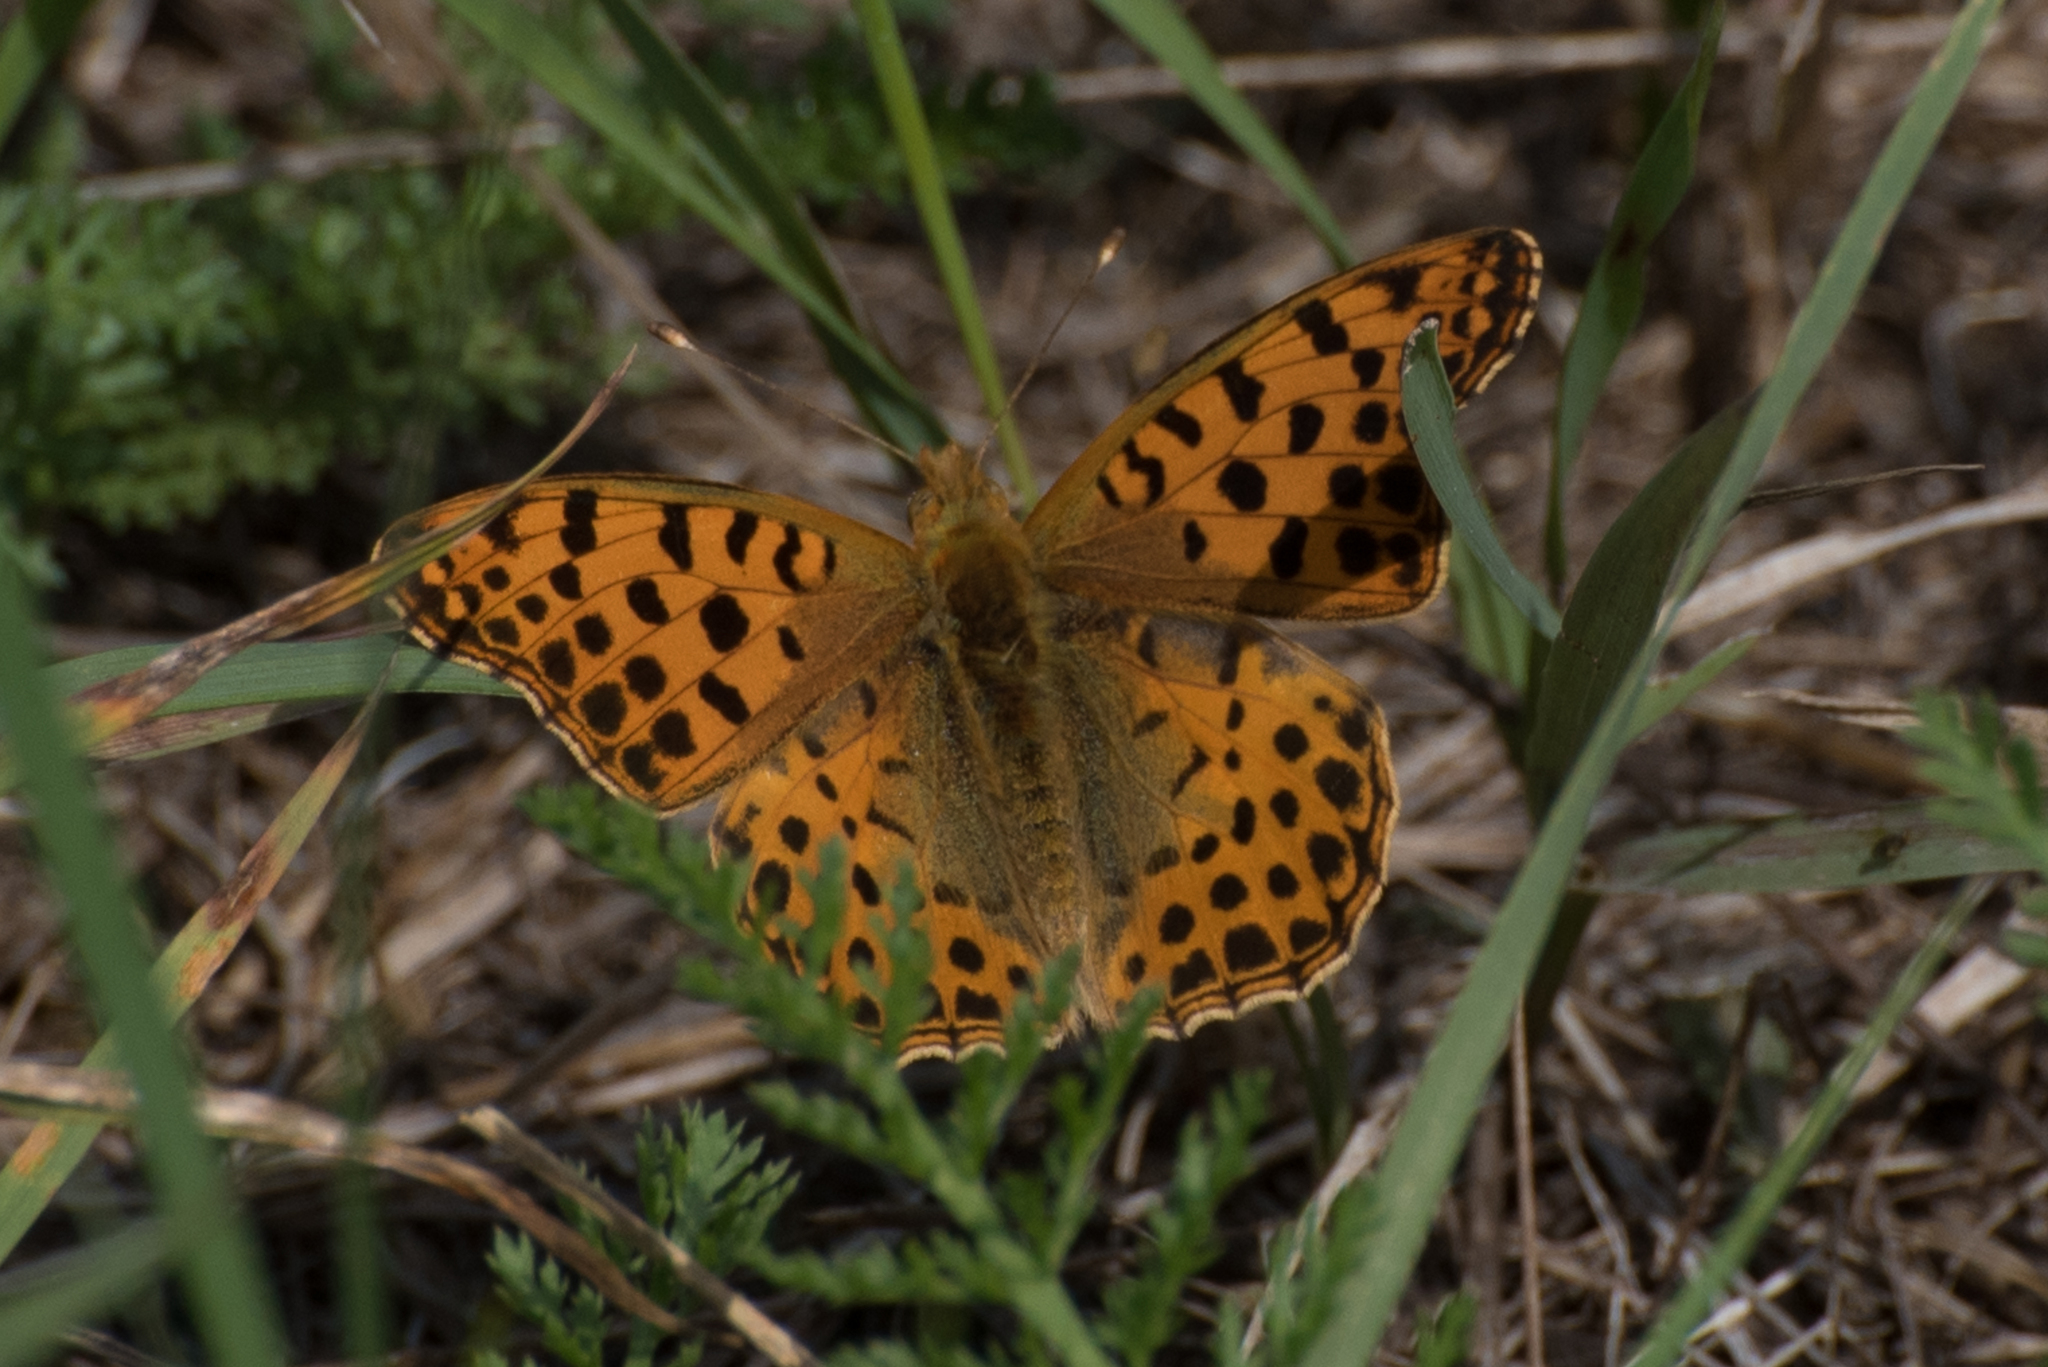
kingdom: Animalia
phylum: Arthropoda
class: Insecta
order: Lepidoptera
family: Nymphalidae
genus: Issoria
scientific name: Issoria lathonia
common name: Queen of spain fritillary
